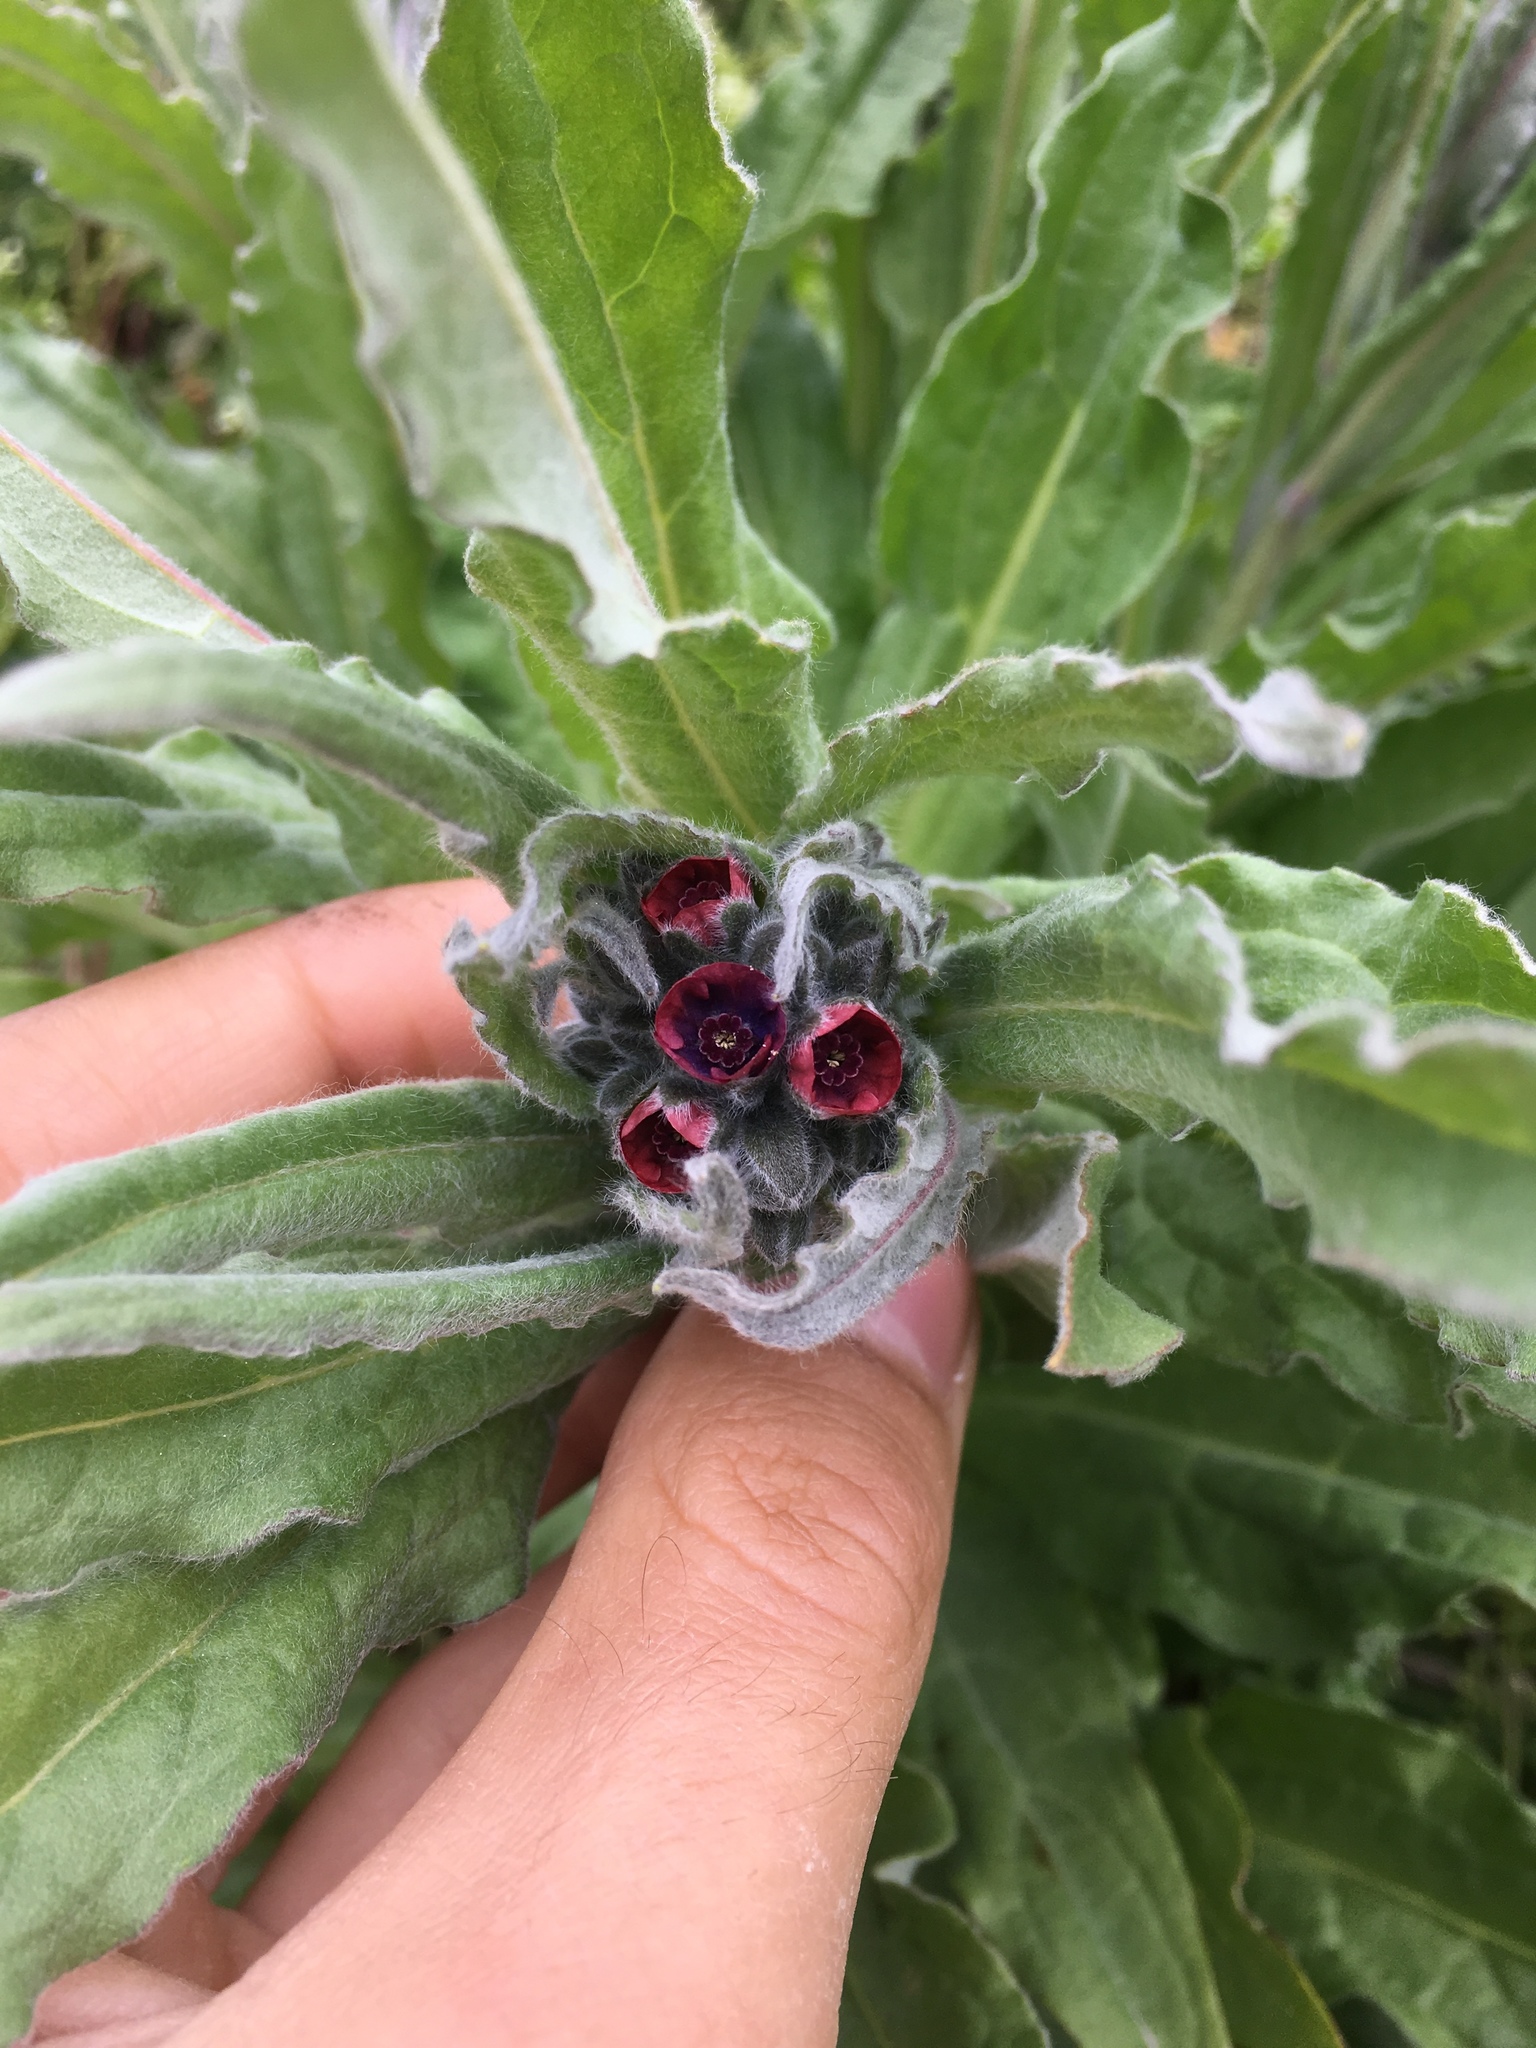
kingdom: Plantae
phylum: Tracheophyta
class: Magnoliopsida
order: Boraginales
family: Boraginaceae
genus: Cynoglossum
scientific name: Cynoglossum officinale
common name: Hound's-tongue
